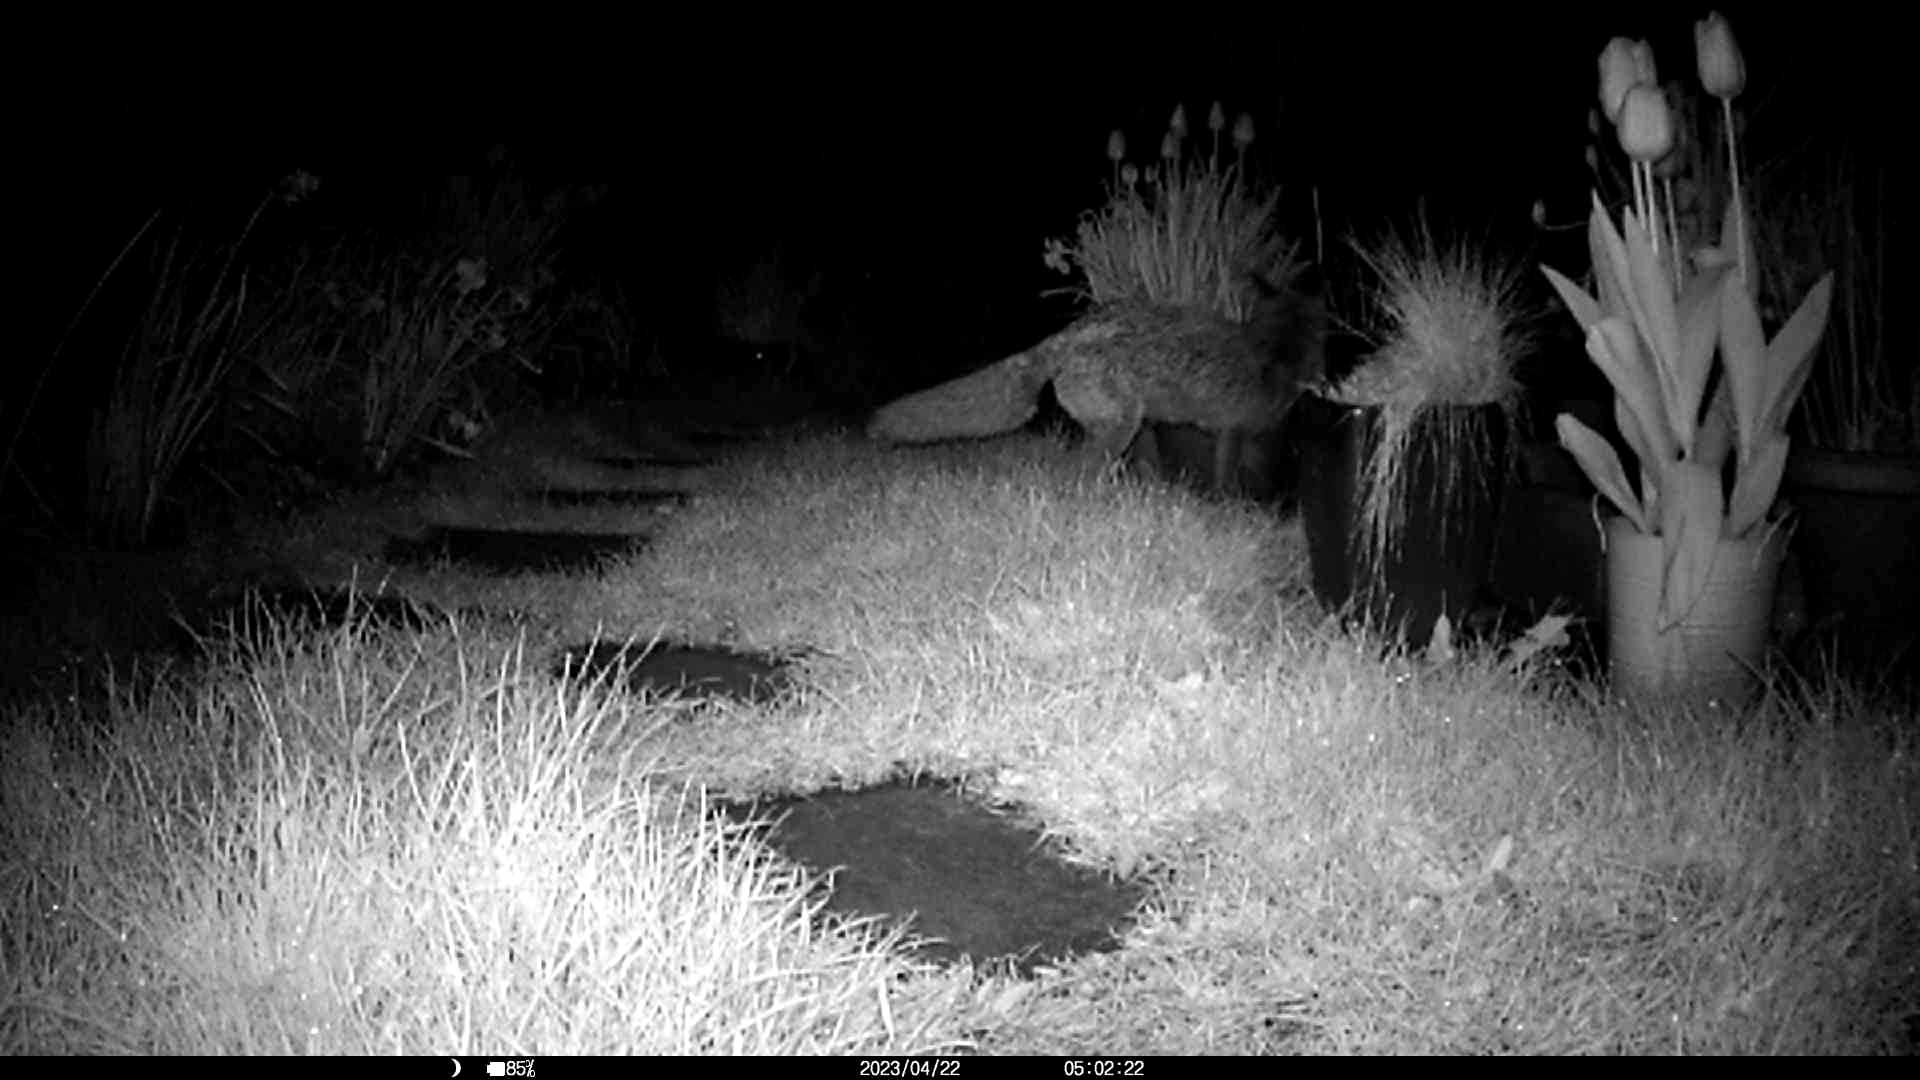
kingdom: Animalia
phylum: Chordata
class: Mammalia
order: Carnivora
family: Canidae
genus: Vulpes
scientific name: Vulpes vulpes
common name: Red fox
